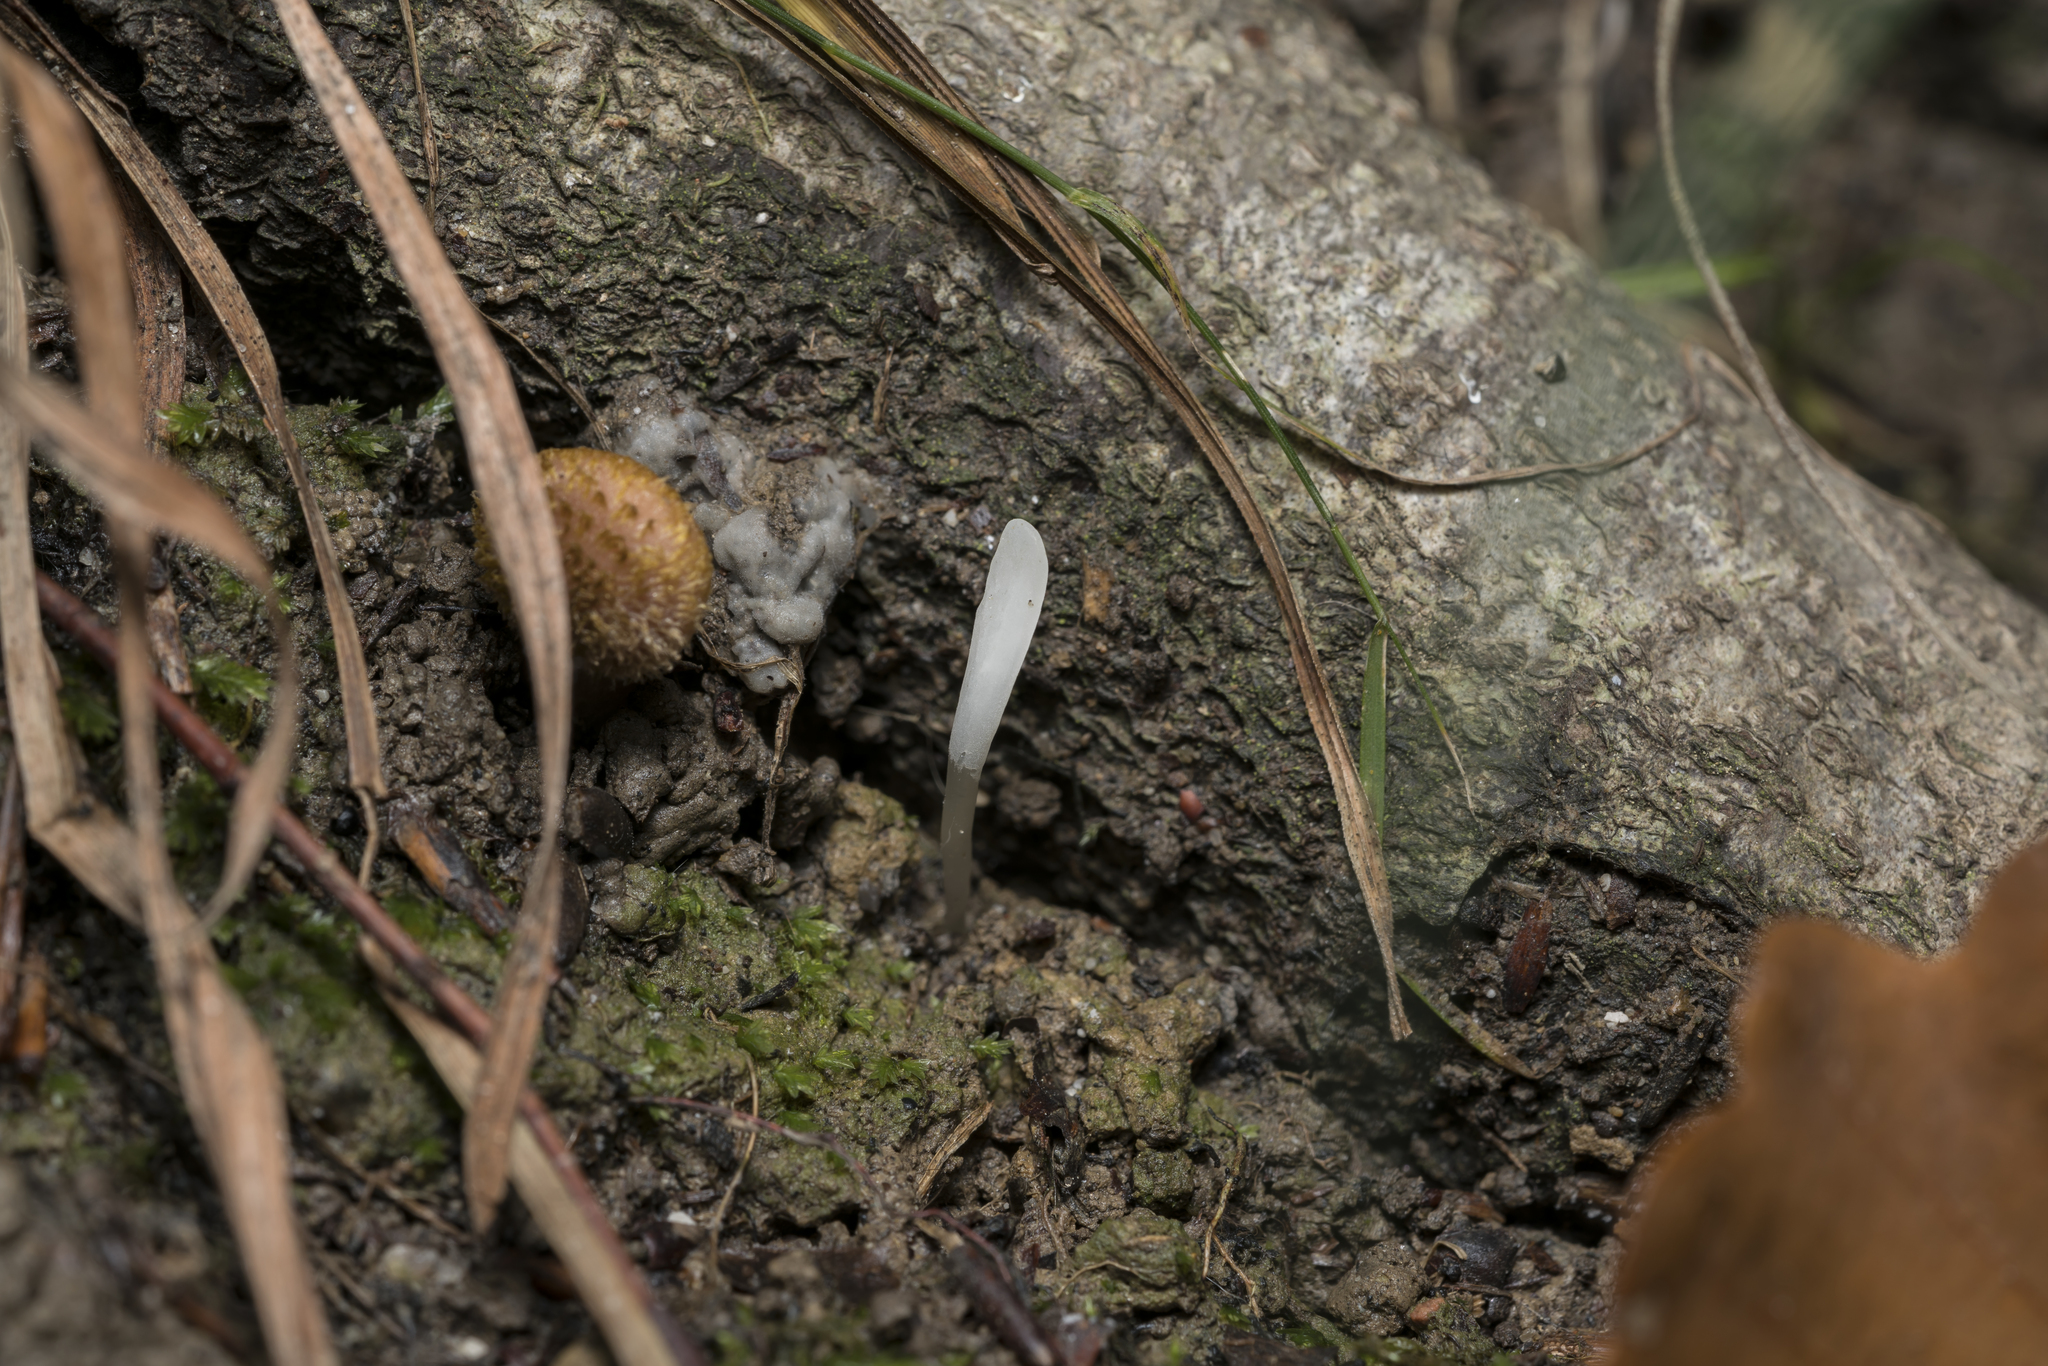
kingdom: Fungi
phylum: Basidiomycota
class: Agaricomycetes
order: Agaricales
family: Clavariaceae
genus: Clavaria
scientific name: Clavaria falcata
